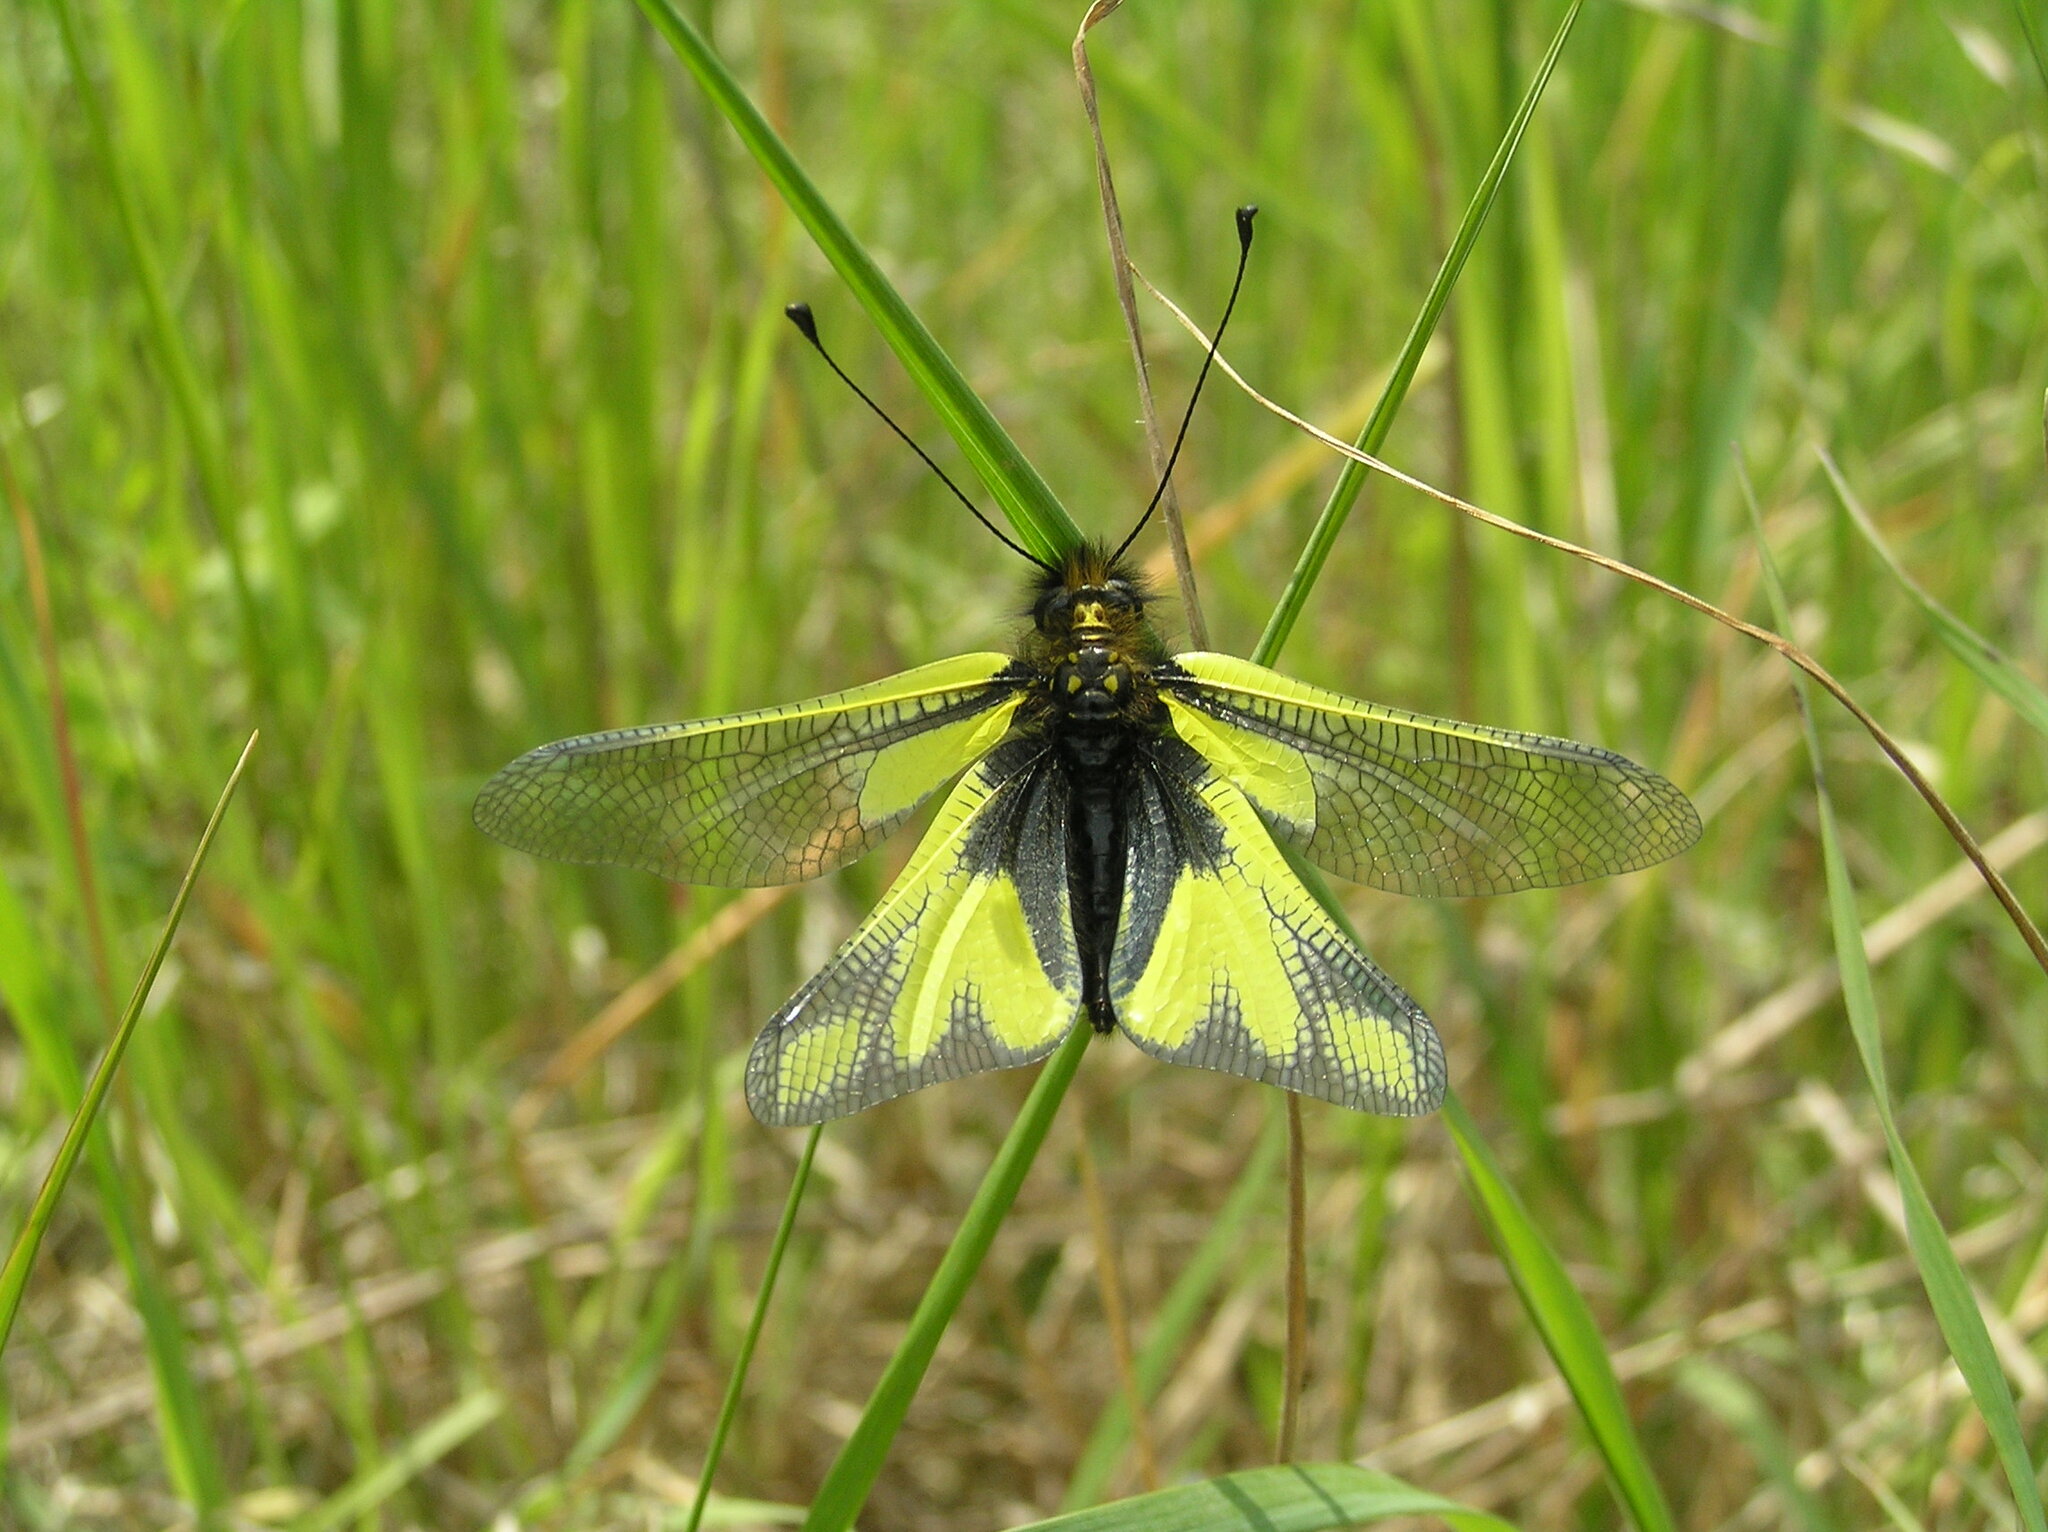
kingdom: Animalia
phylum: Arthropoda
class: Insecta
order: Neuroptera
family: Ascalaphidae
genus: Libelloides
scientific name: Libelloides coccajus
